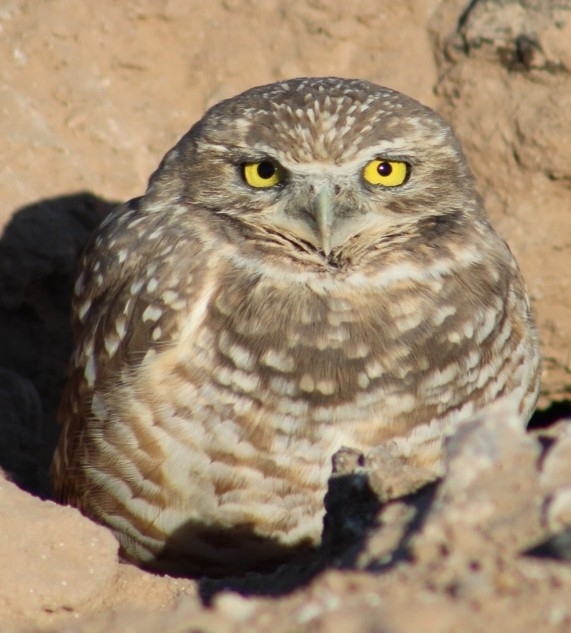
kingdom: Animalia
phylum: Chordata
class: Aves
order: Strigiformes
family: Strigidae
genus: Athene
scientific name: Athene cunicularia
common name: Burrowing owl
